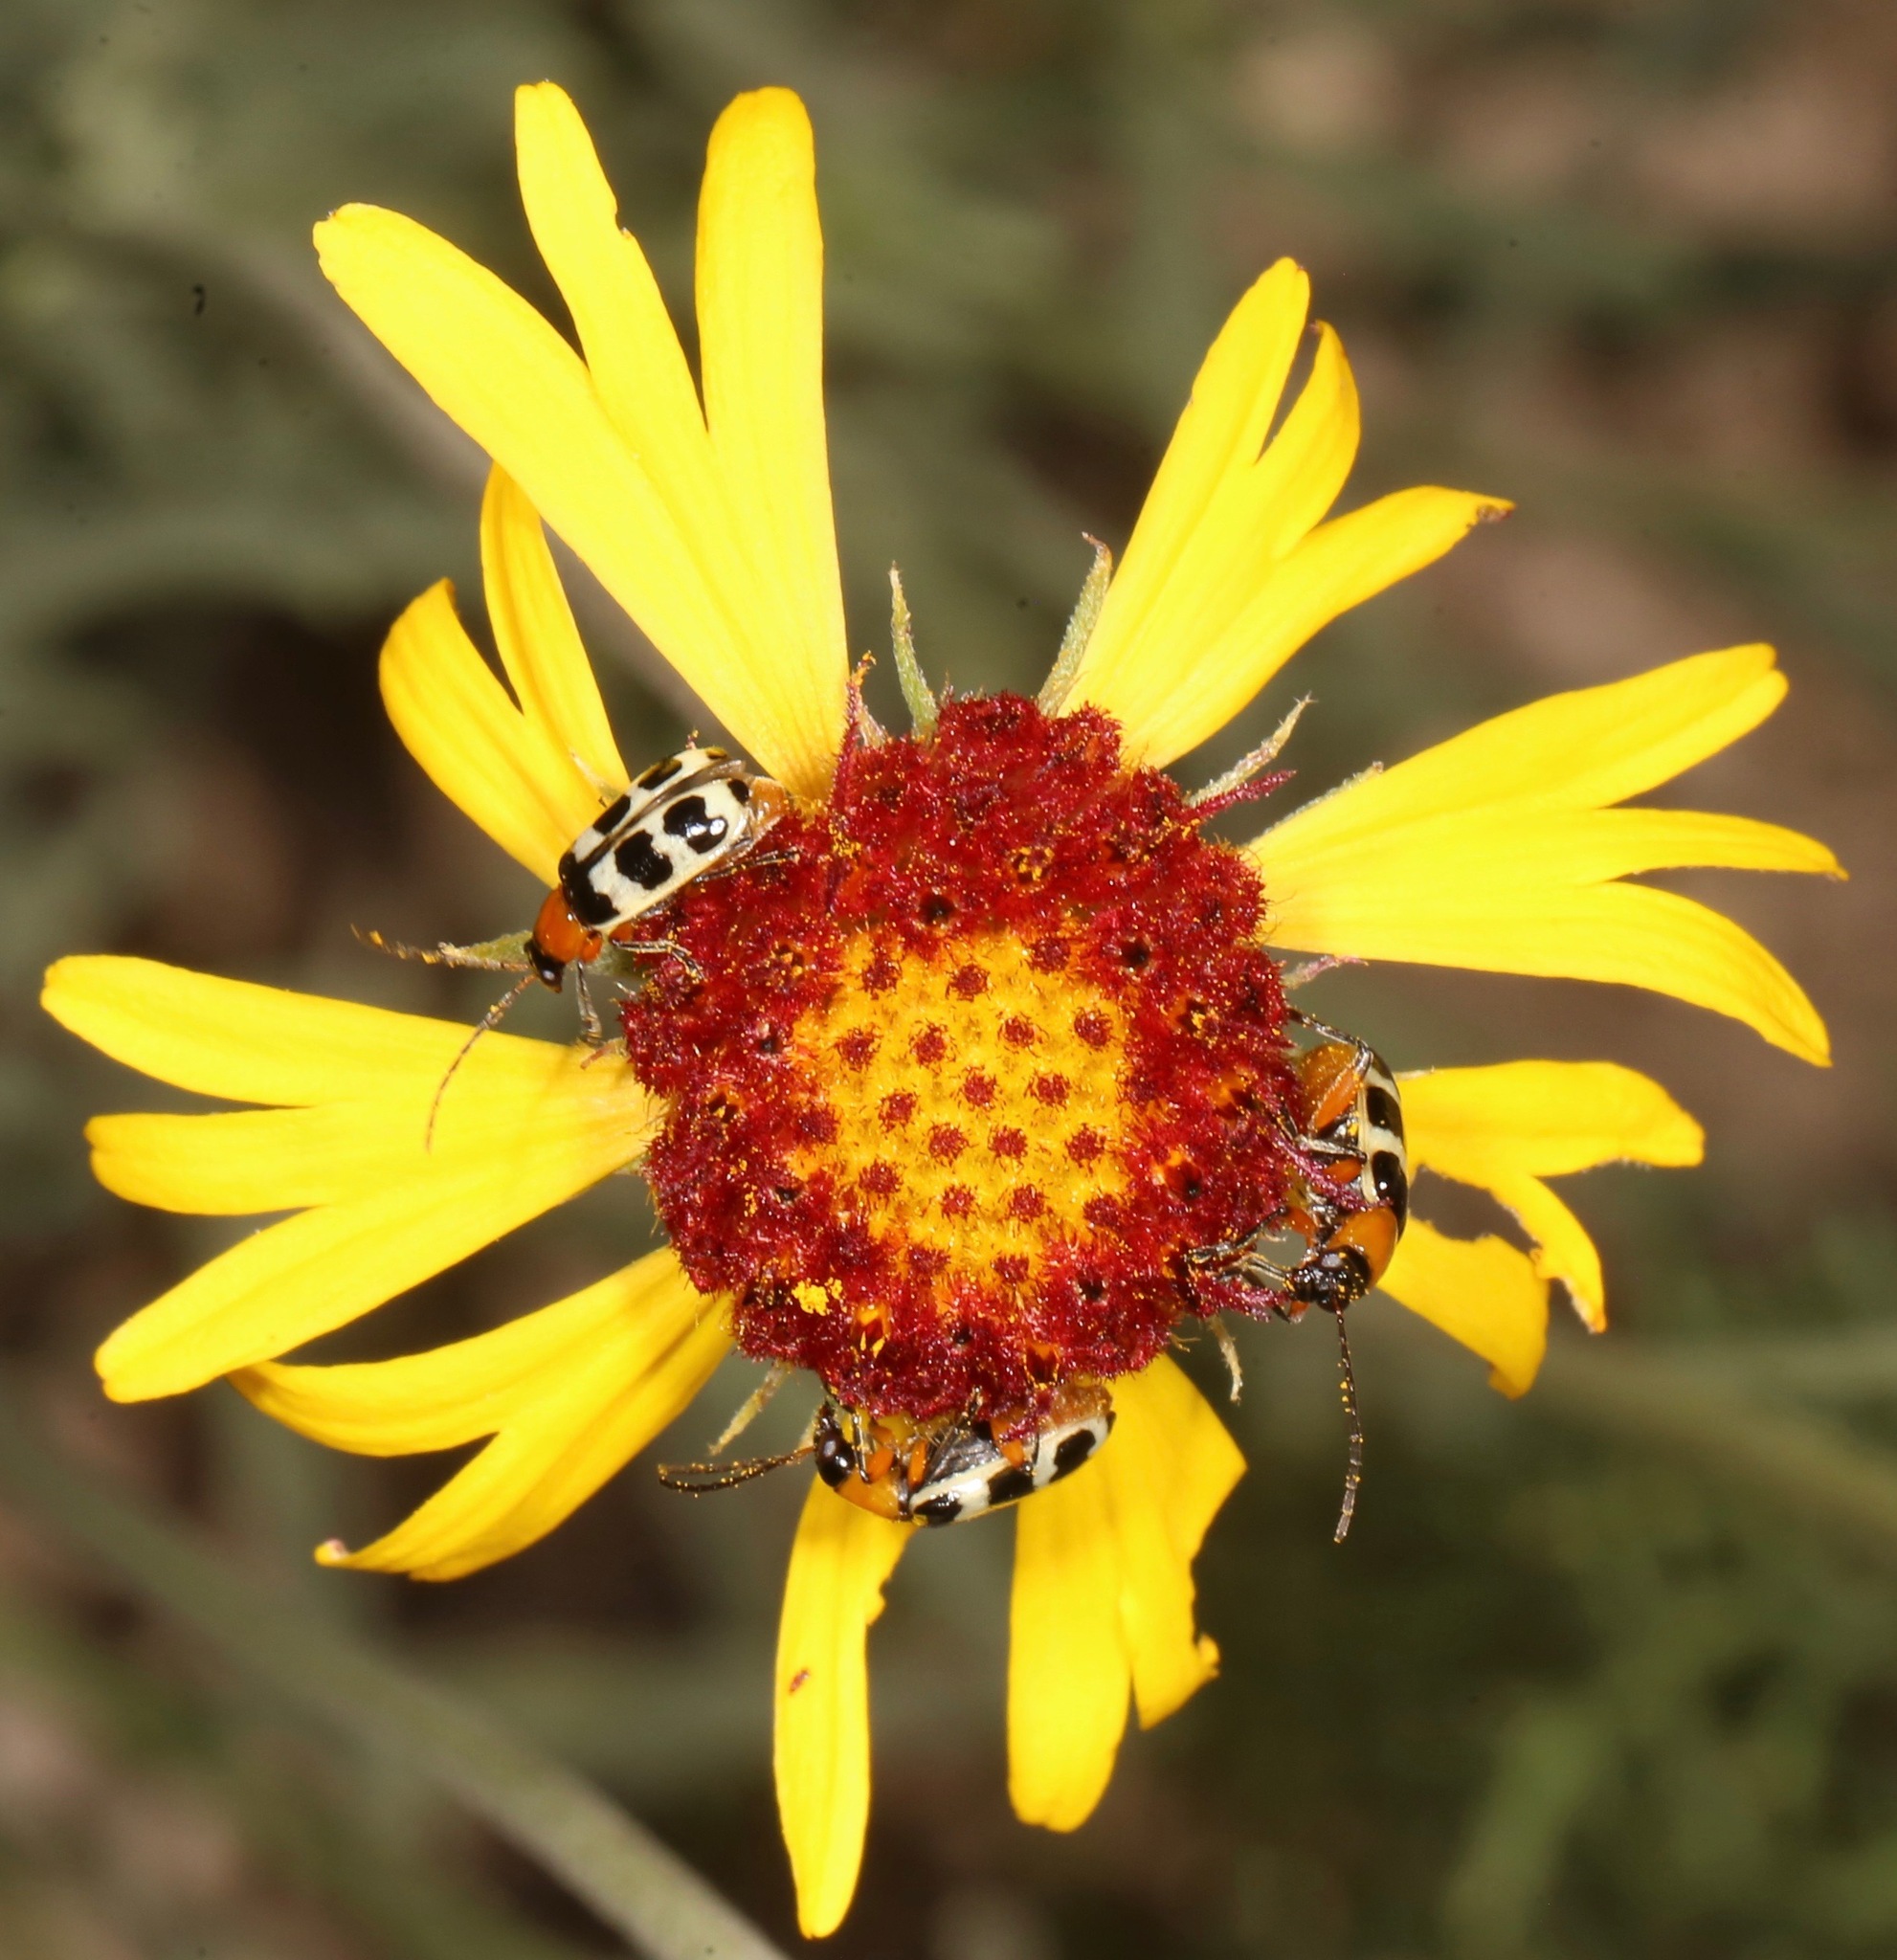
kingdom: Animalia
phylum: Arthropoda
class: Insecta
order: Coleoptera
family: Chrysomelidae
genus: Paranapiacaba
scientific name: Paranapiacaba tricincta
